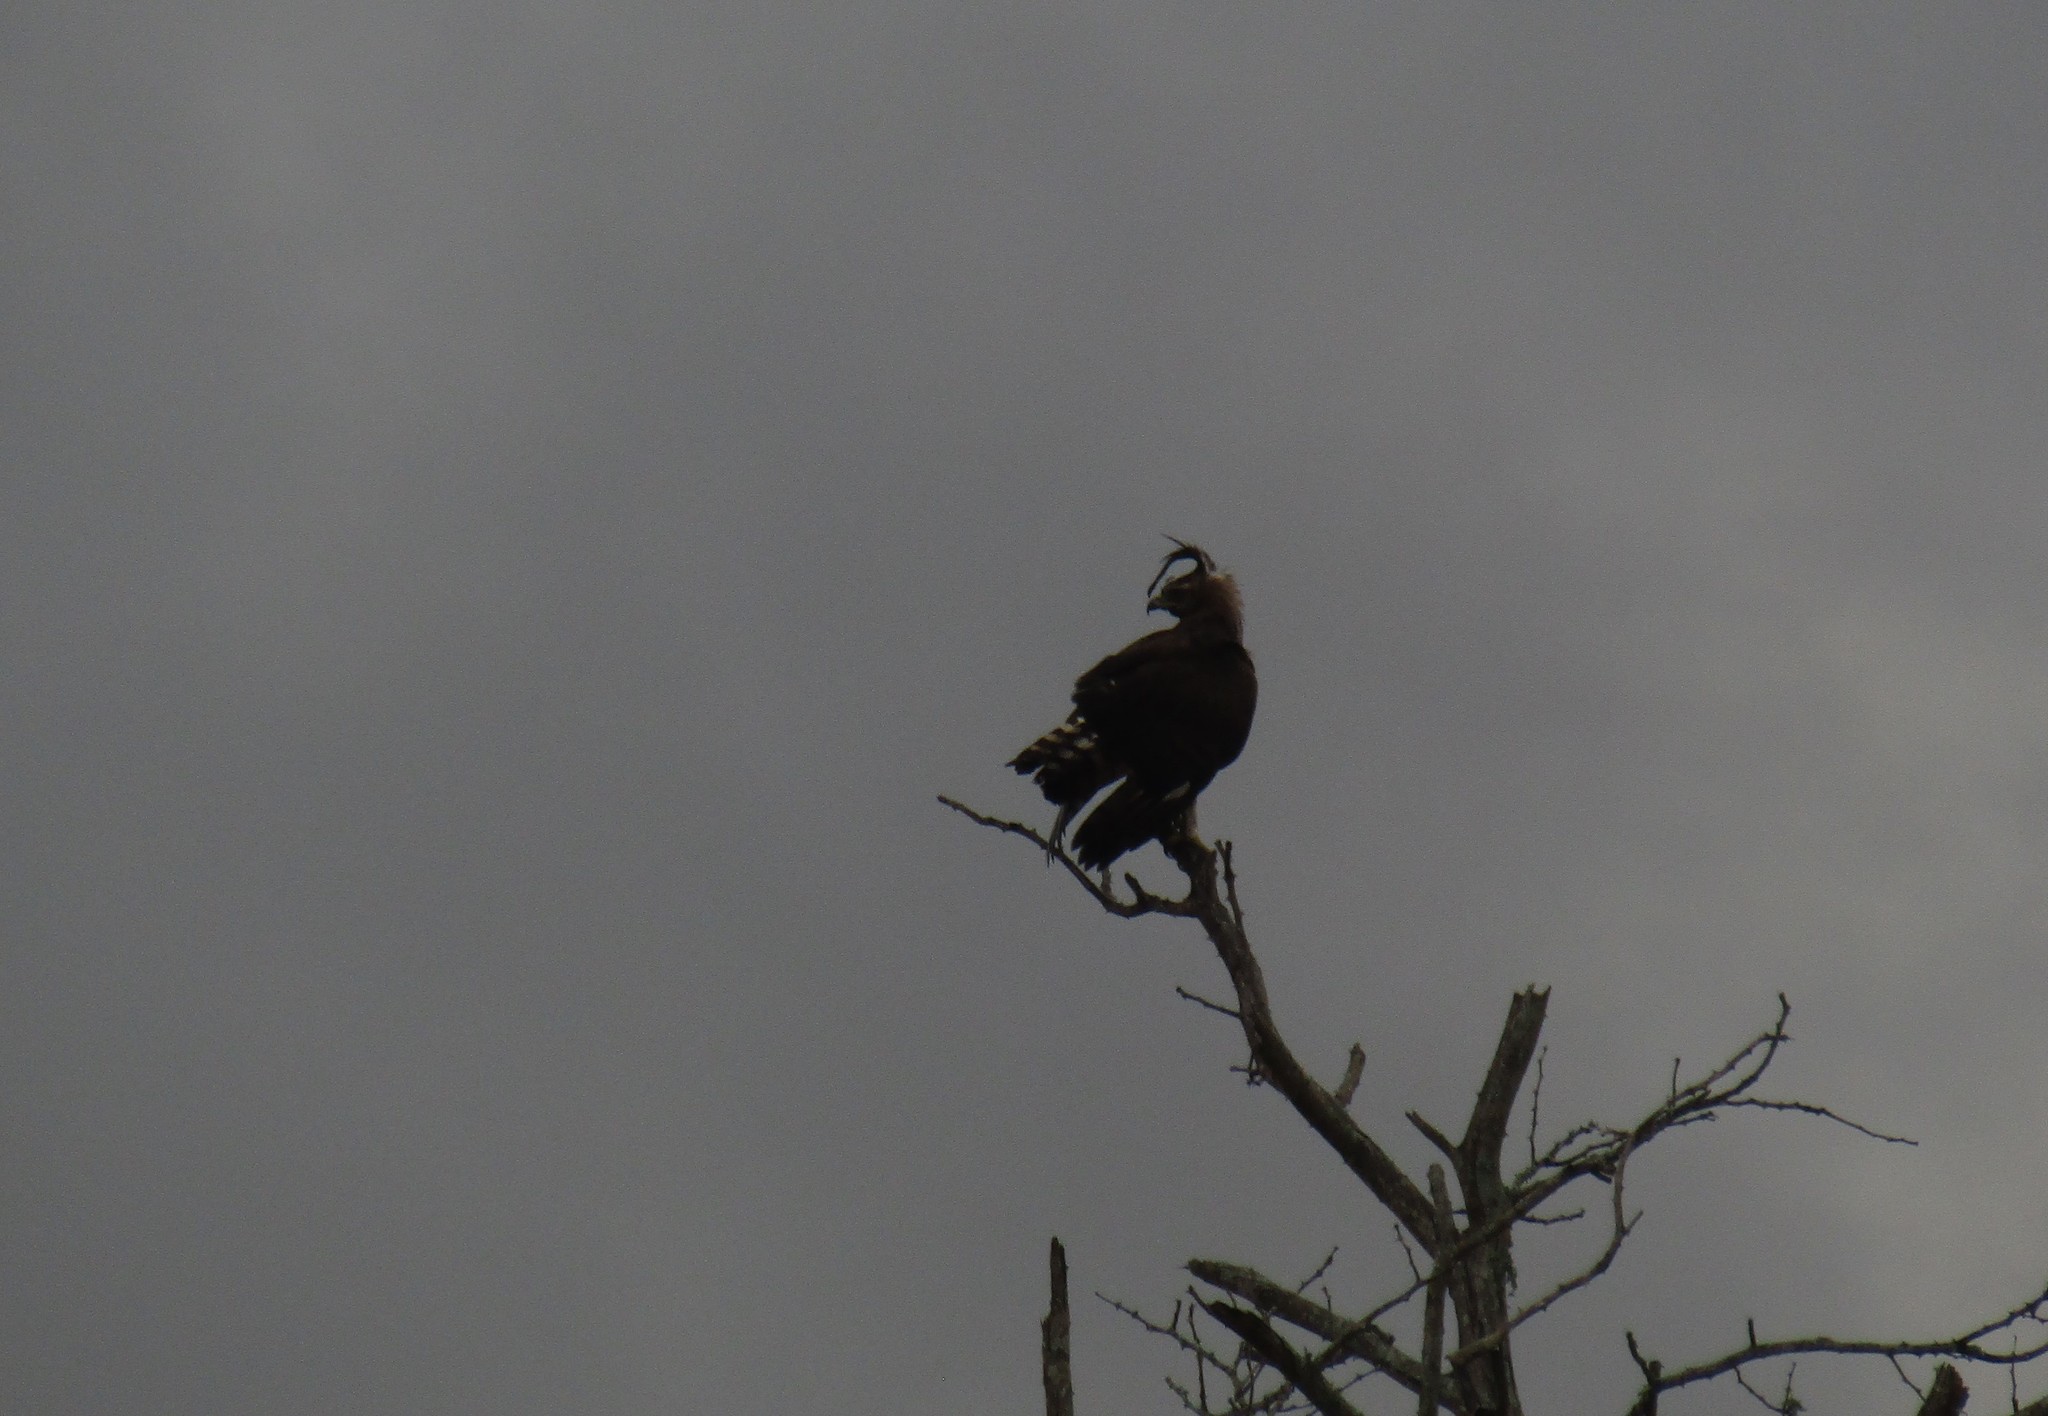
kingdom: Animalia
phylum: Chordata
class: Aves
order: Accipitriformes
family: Accipitridae
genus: Lophaetus
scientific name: Lophaetus occipitalis
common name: Long-crested eagle
